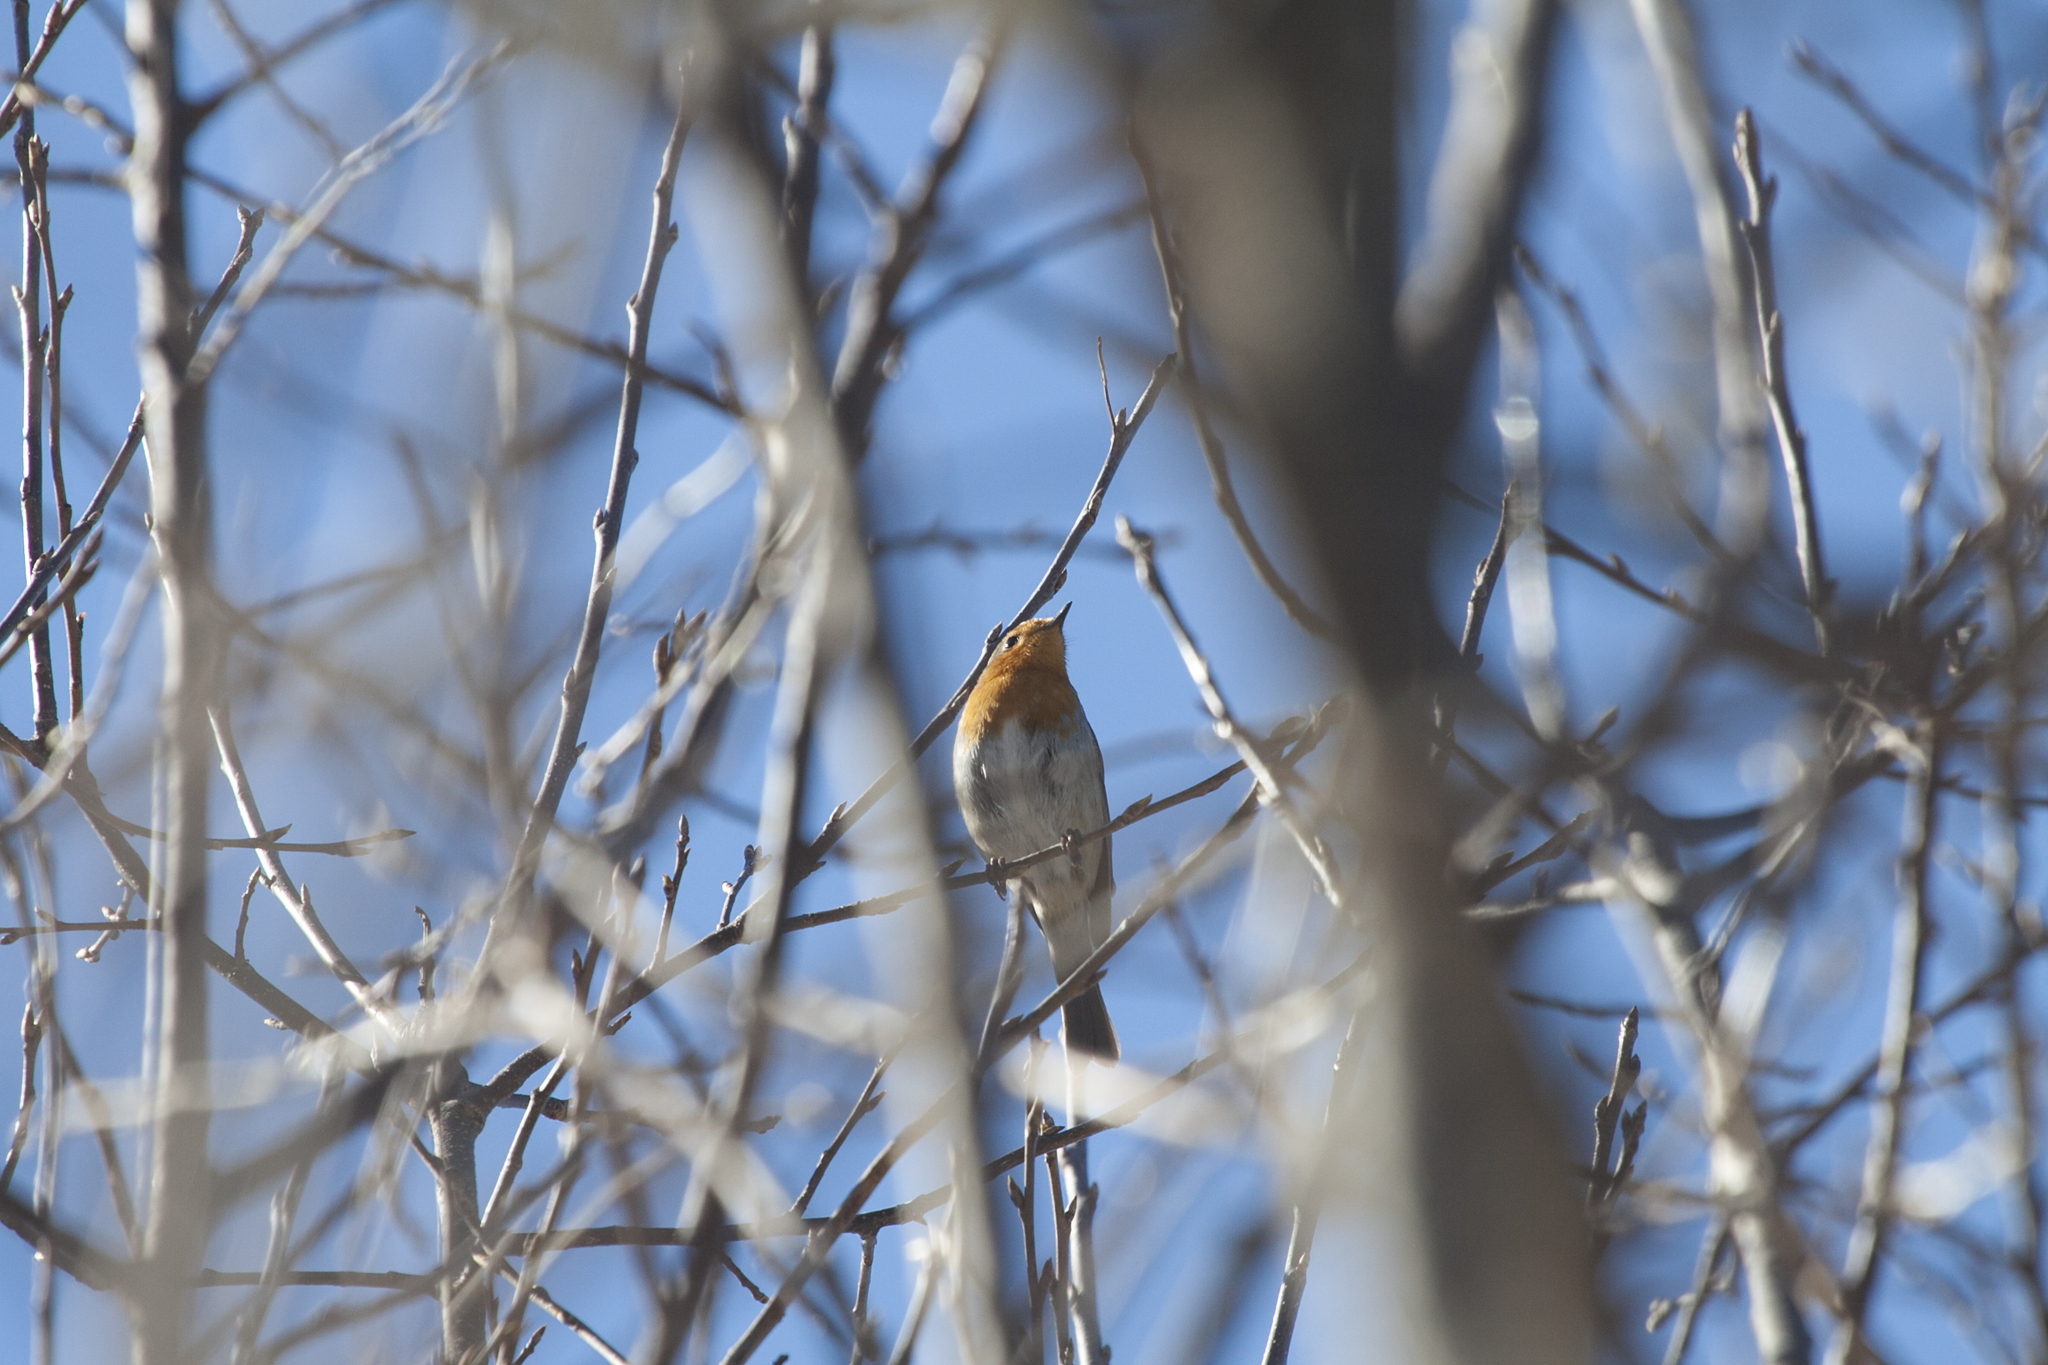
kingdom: Animalia
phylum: Chordata
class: Aves
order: Passeriformes
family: Muscicapidae
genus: Erithacus
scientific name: Erithacus rubecula
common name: European robin
